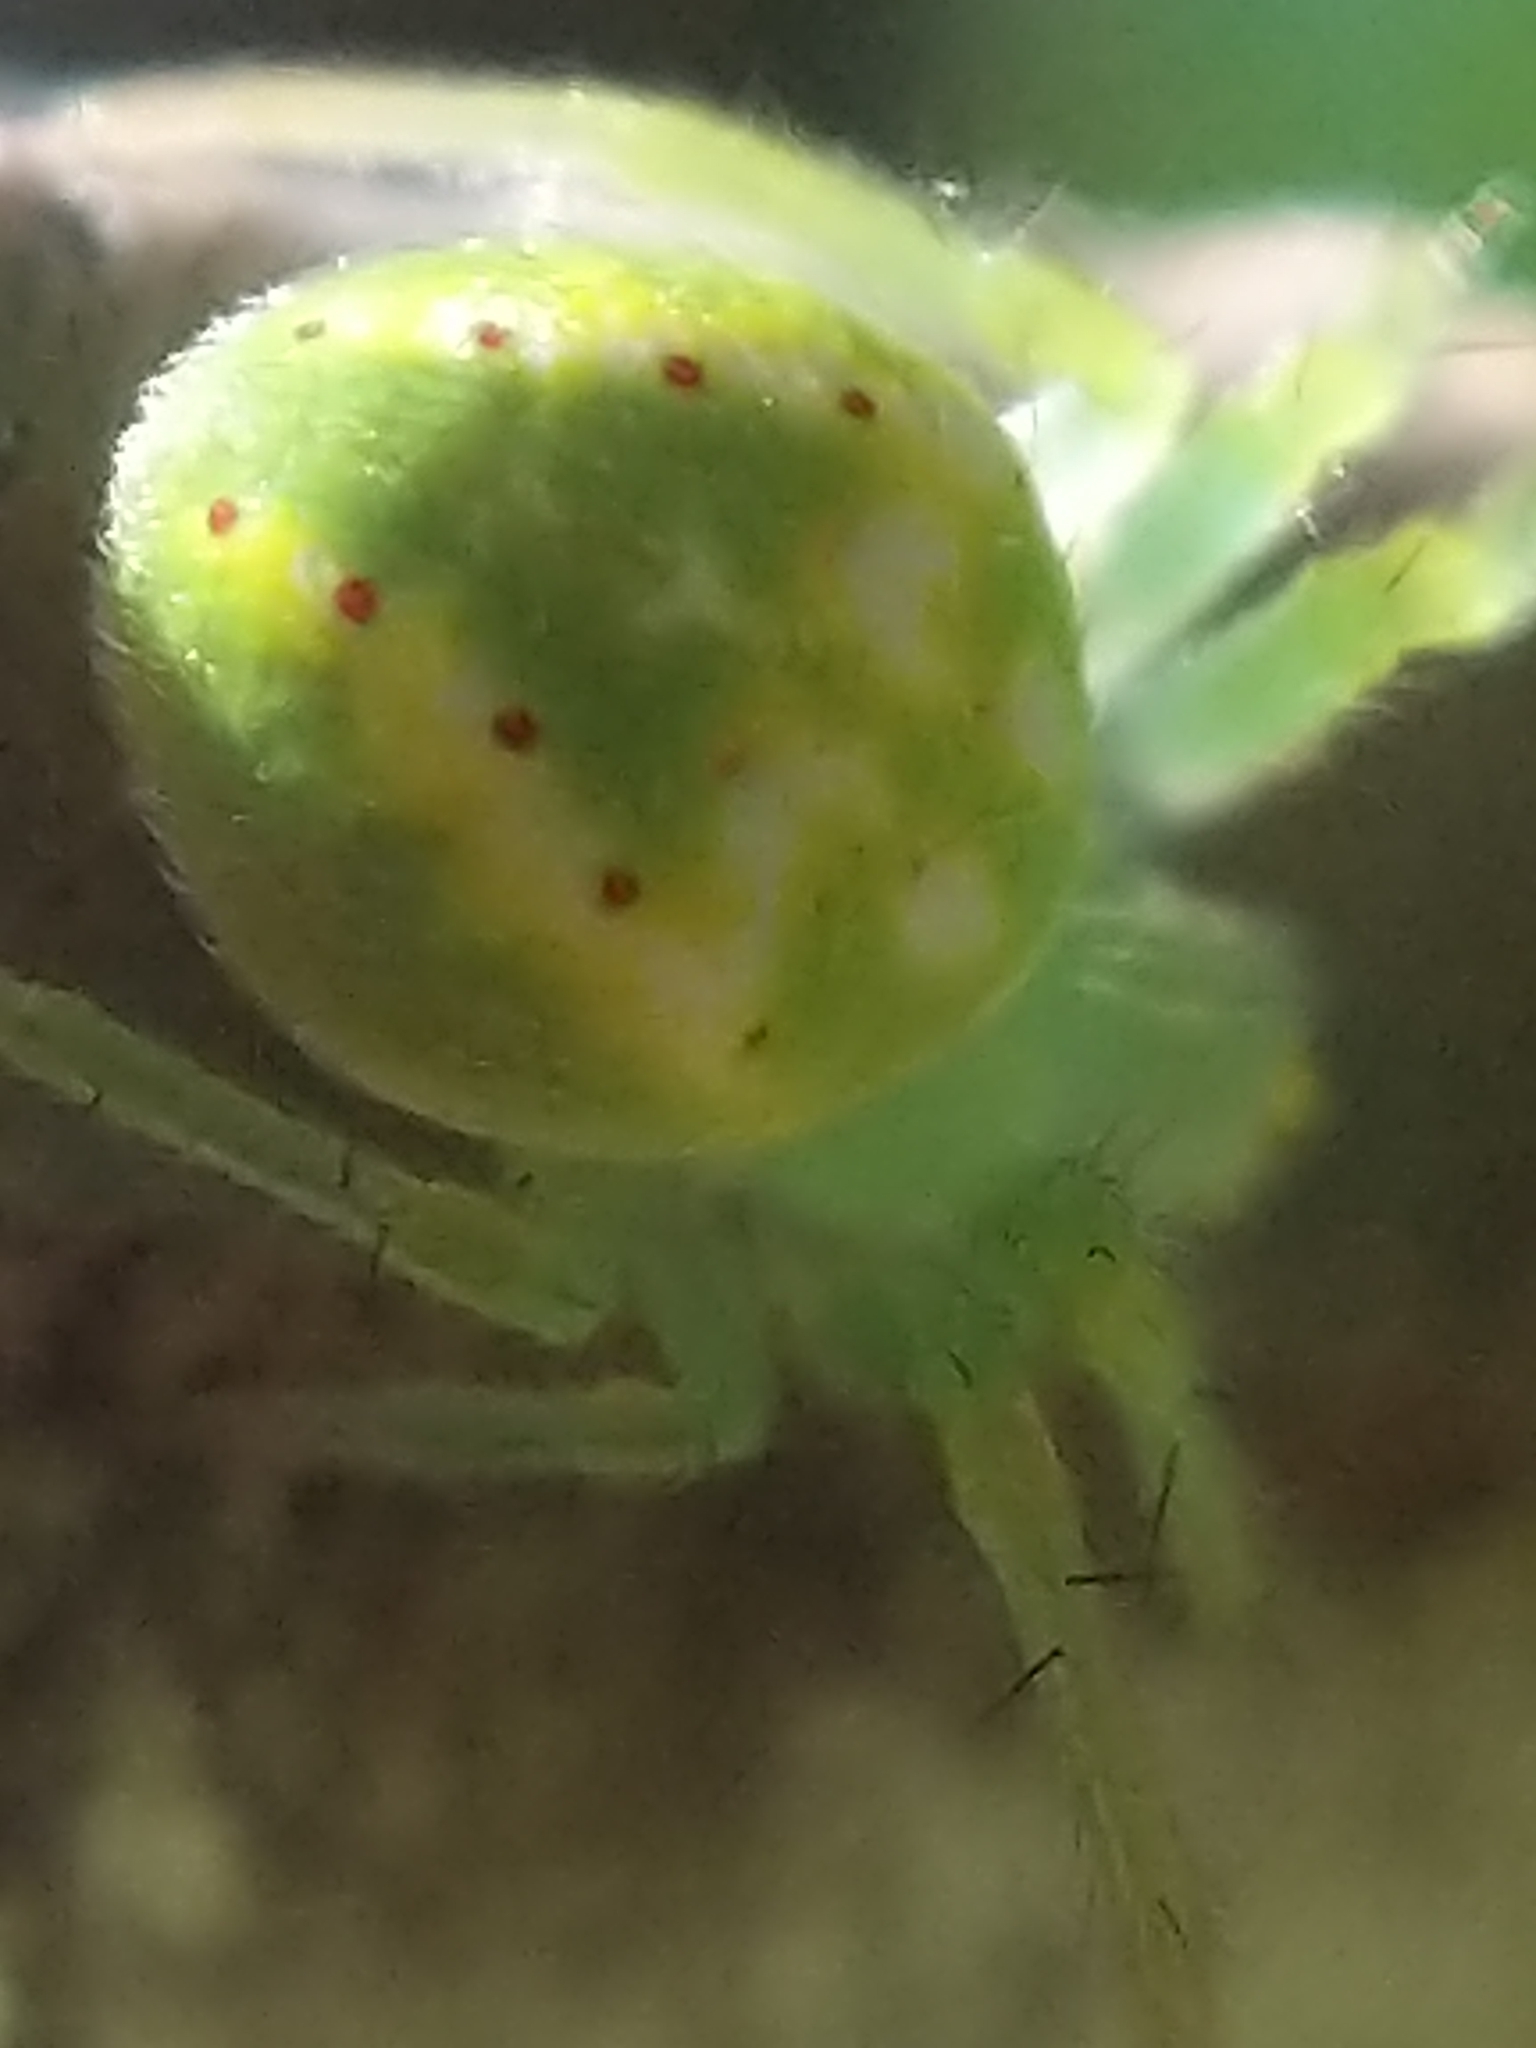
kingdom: Animalia
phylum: Arthropoda
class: Arachnida
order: Araneae
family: Araneidae
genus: Araneus
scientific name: Araneus cingulatus
